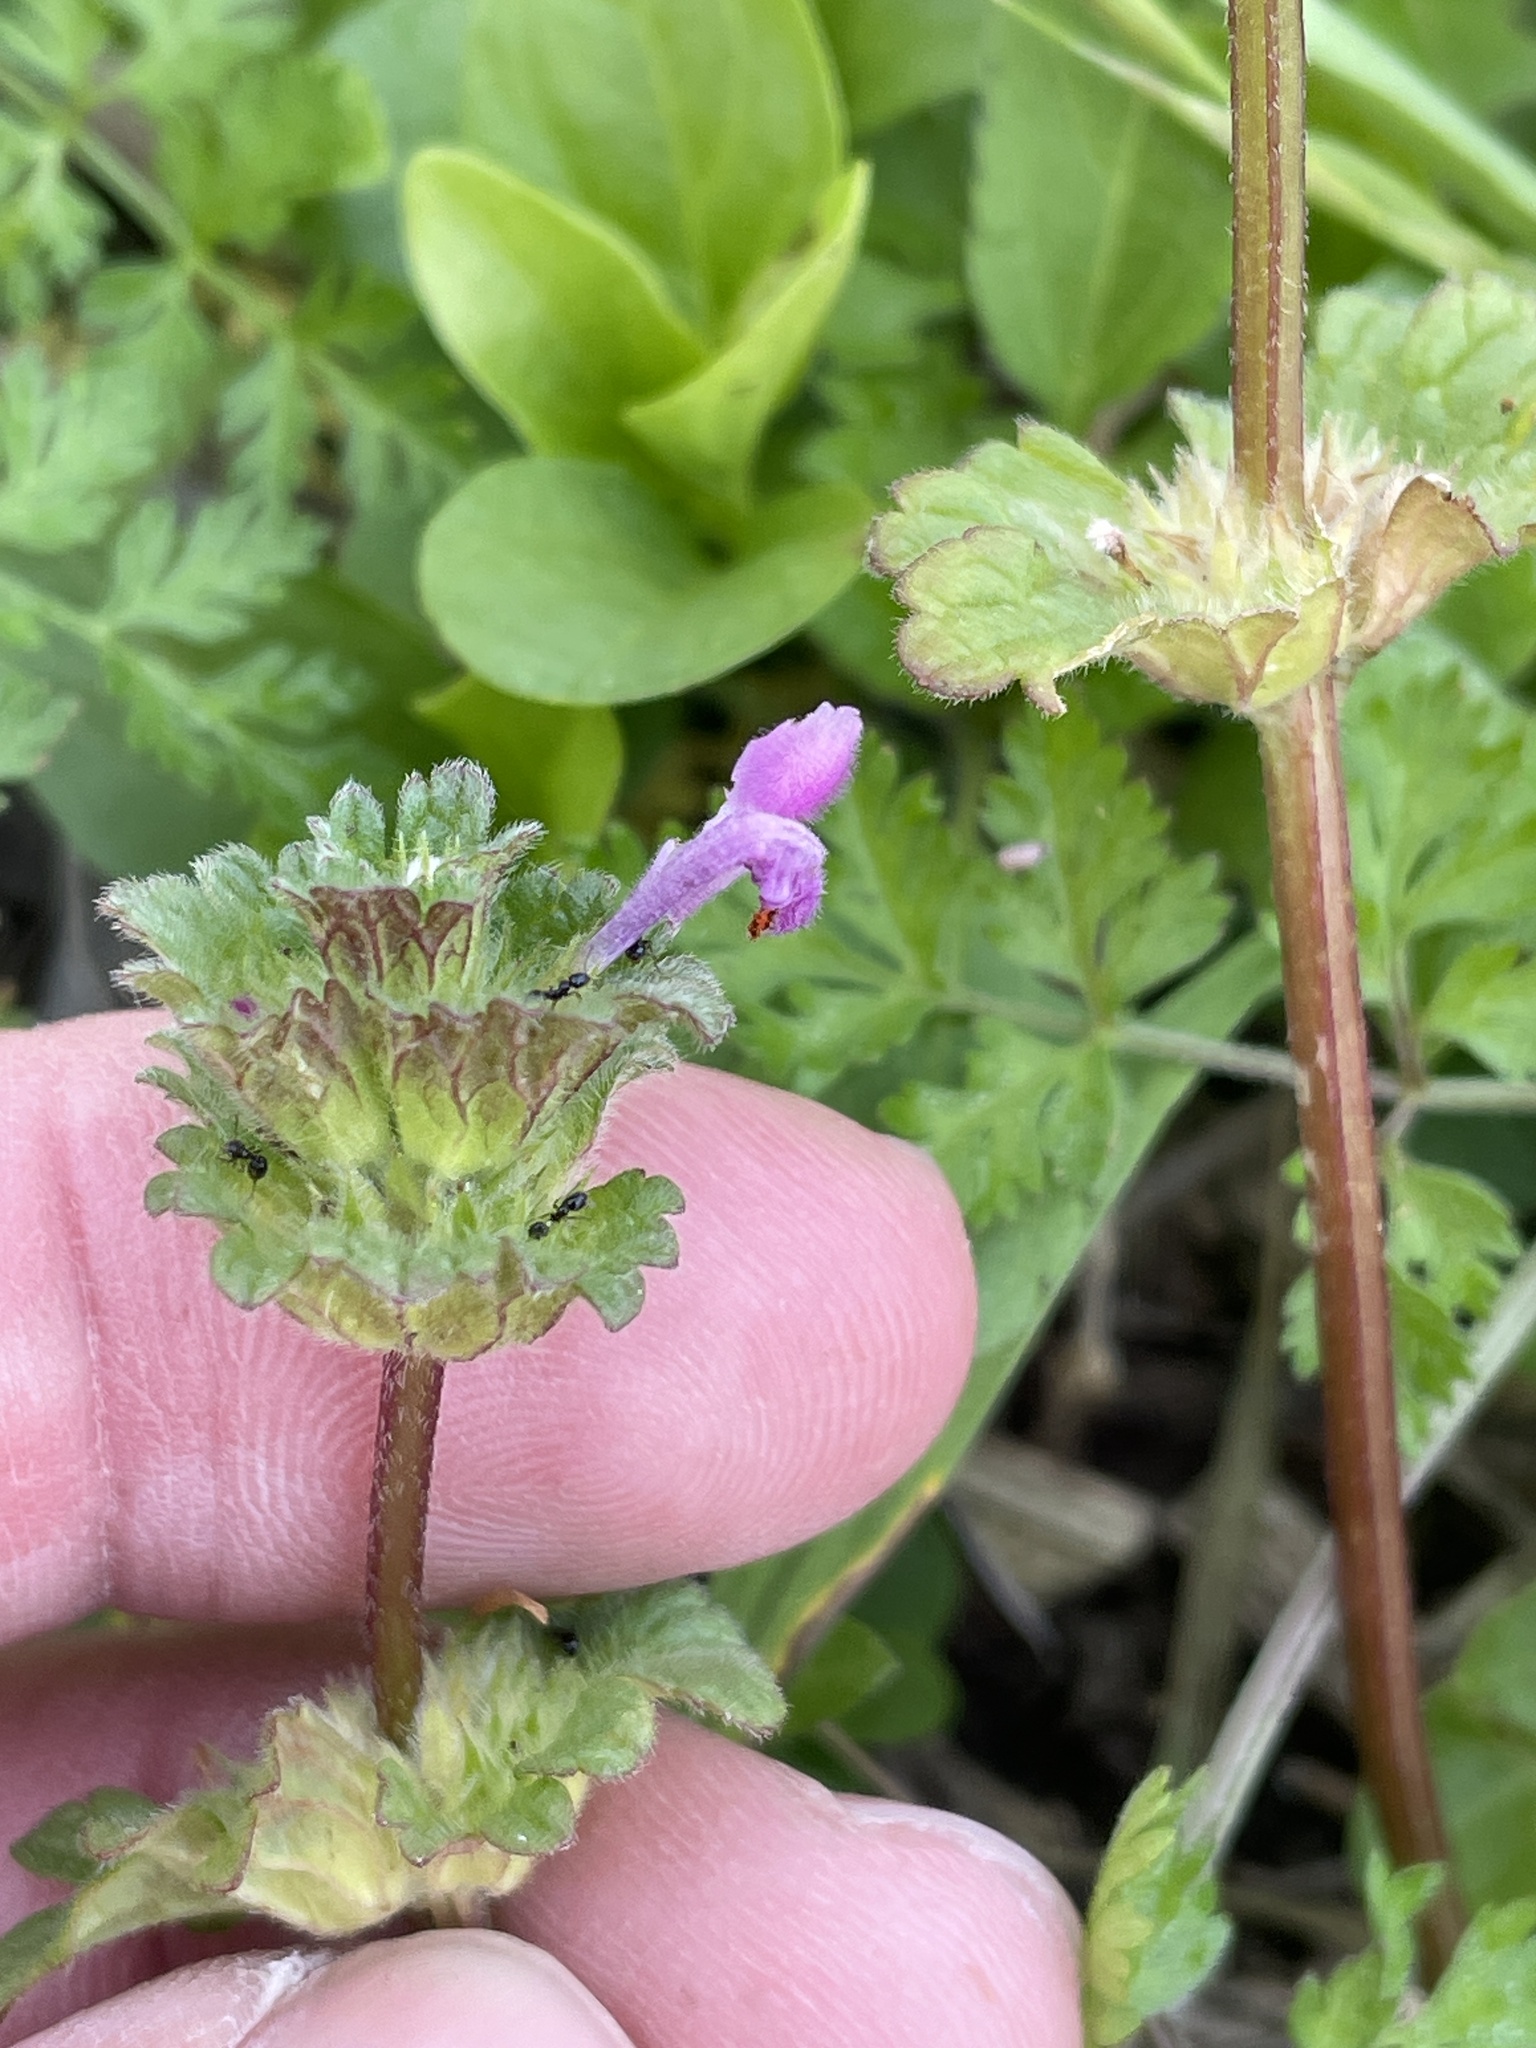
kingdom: Plantae
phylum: Tracheophyta
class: Magnoliopsida
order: Lamiales
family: Lamiaceae
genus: Lamium
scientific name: Lamium amplexicaule
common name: Henbit dead-nettle
